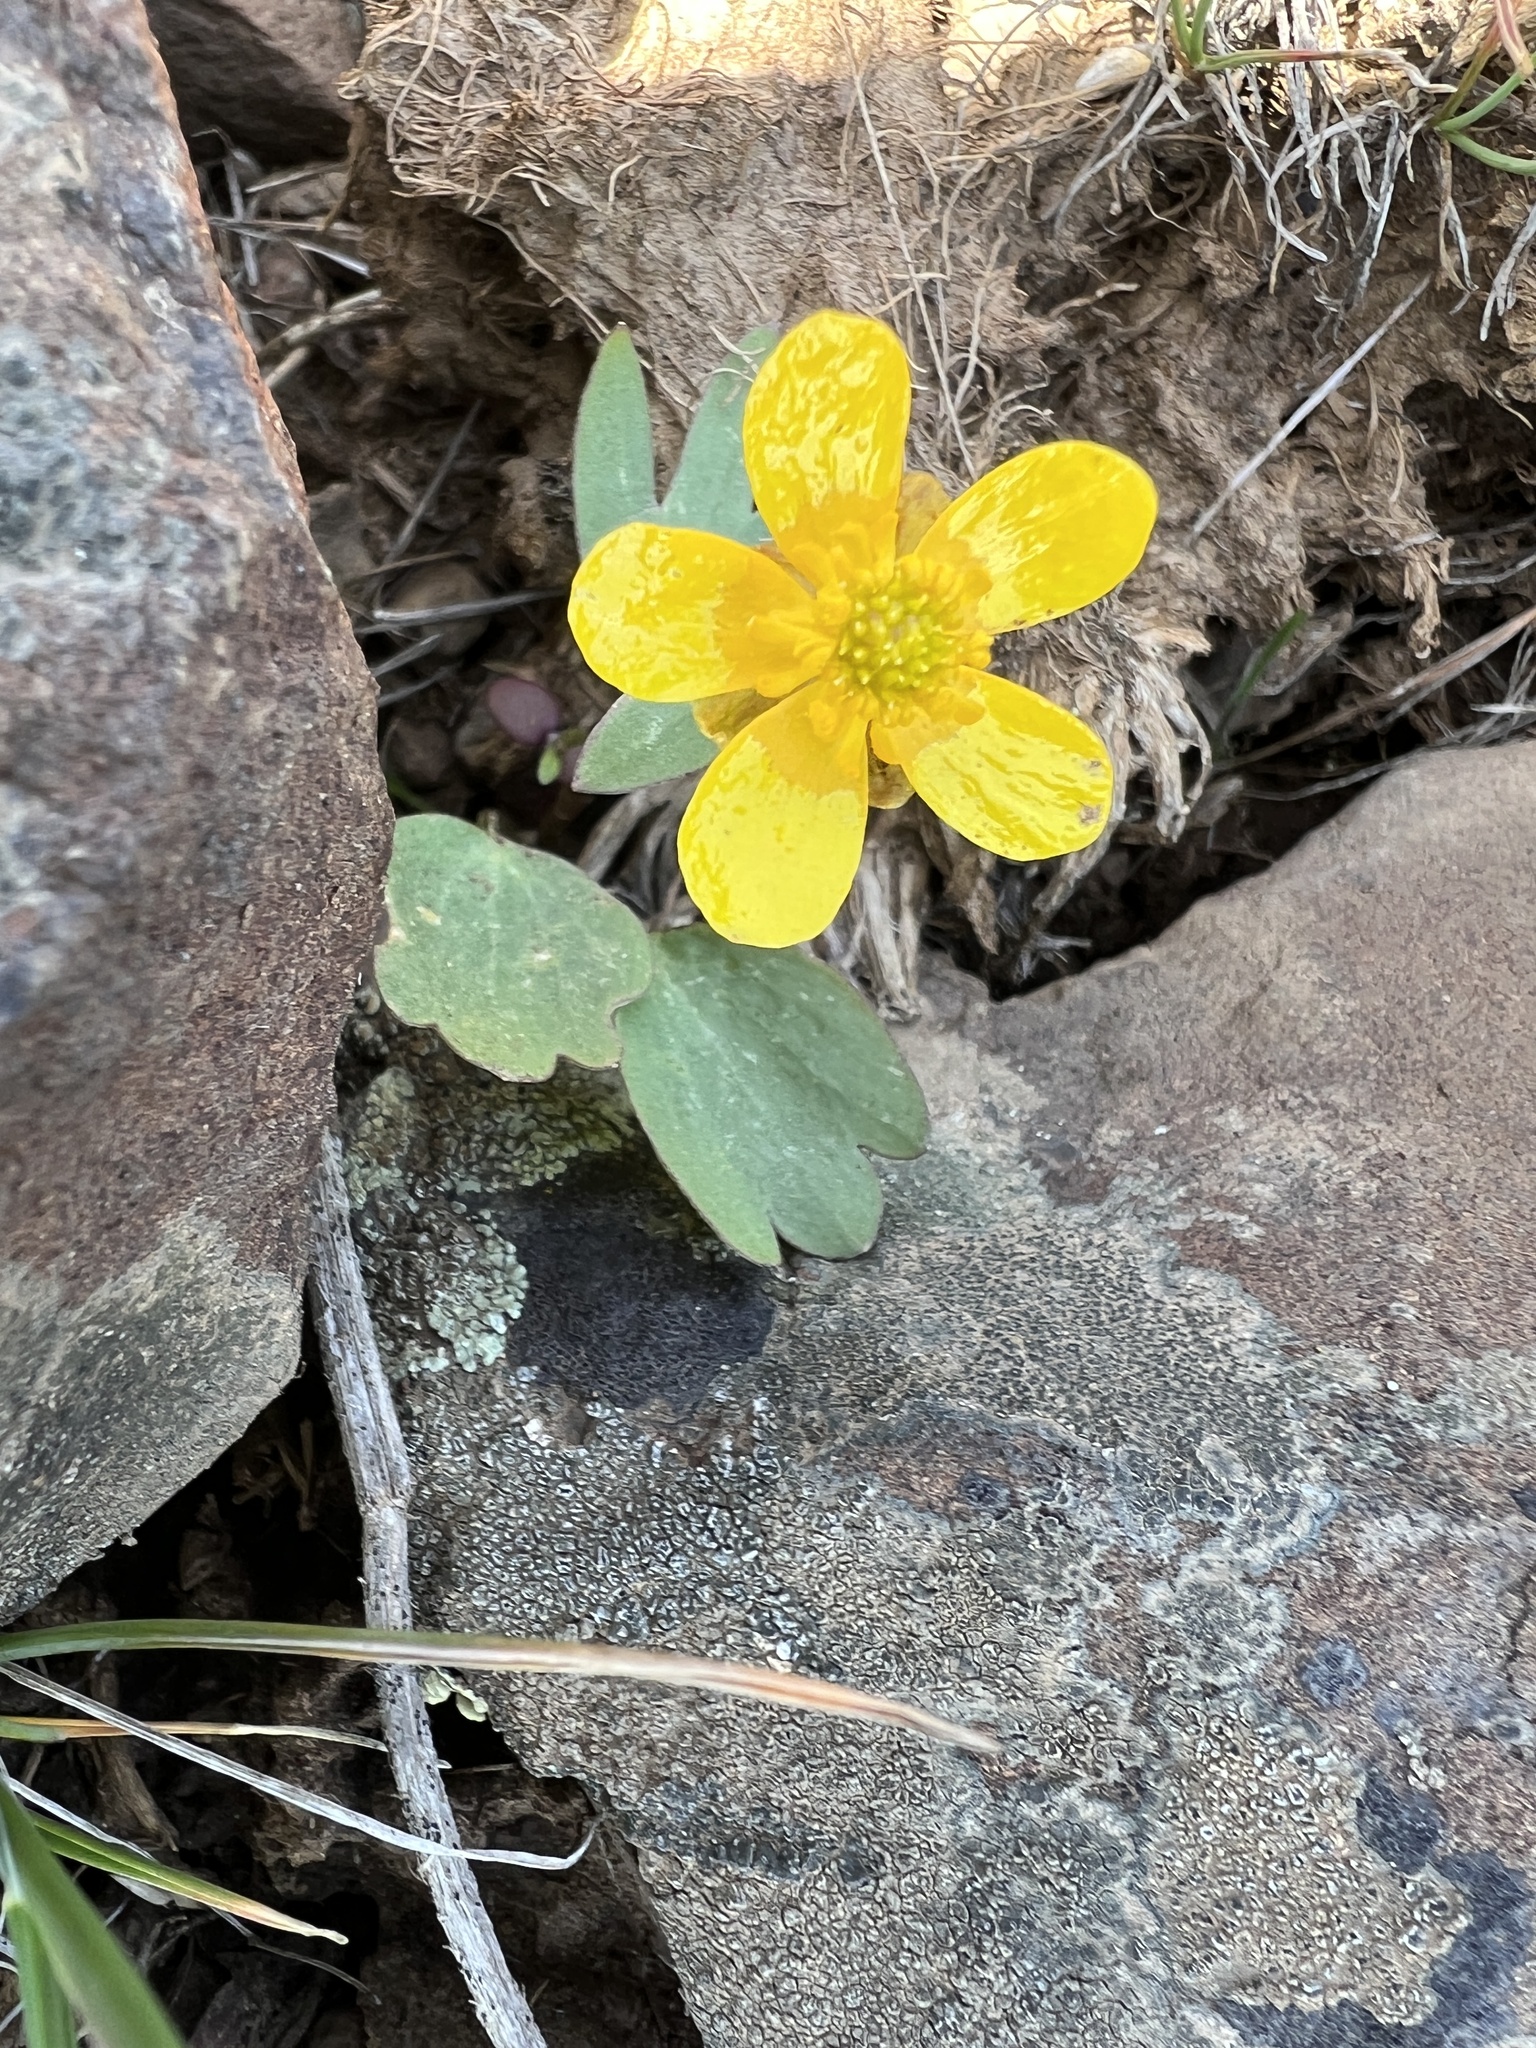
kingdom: Plantae
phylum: Tracheophyta
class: Magnoliopsida
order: Ranunculales
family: Ranunculaceae
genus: Ranunculus
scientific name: Ranunculus glaberrimus
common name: Sagebrush buttercup
